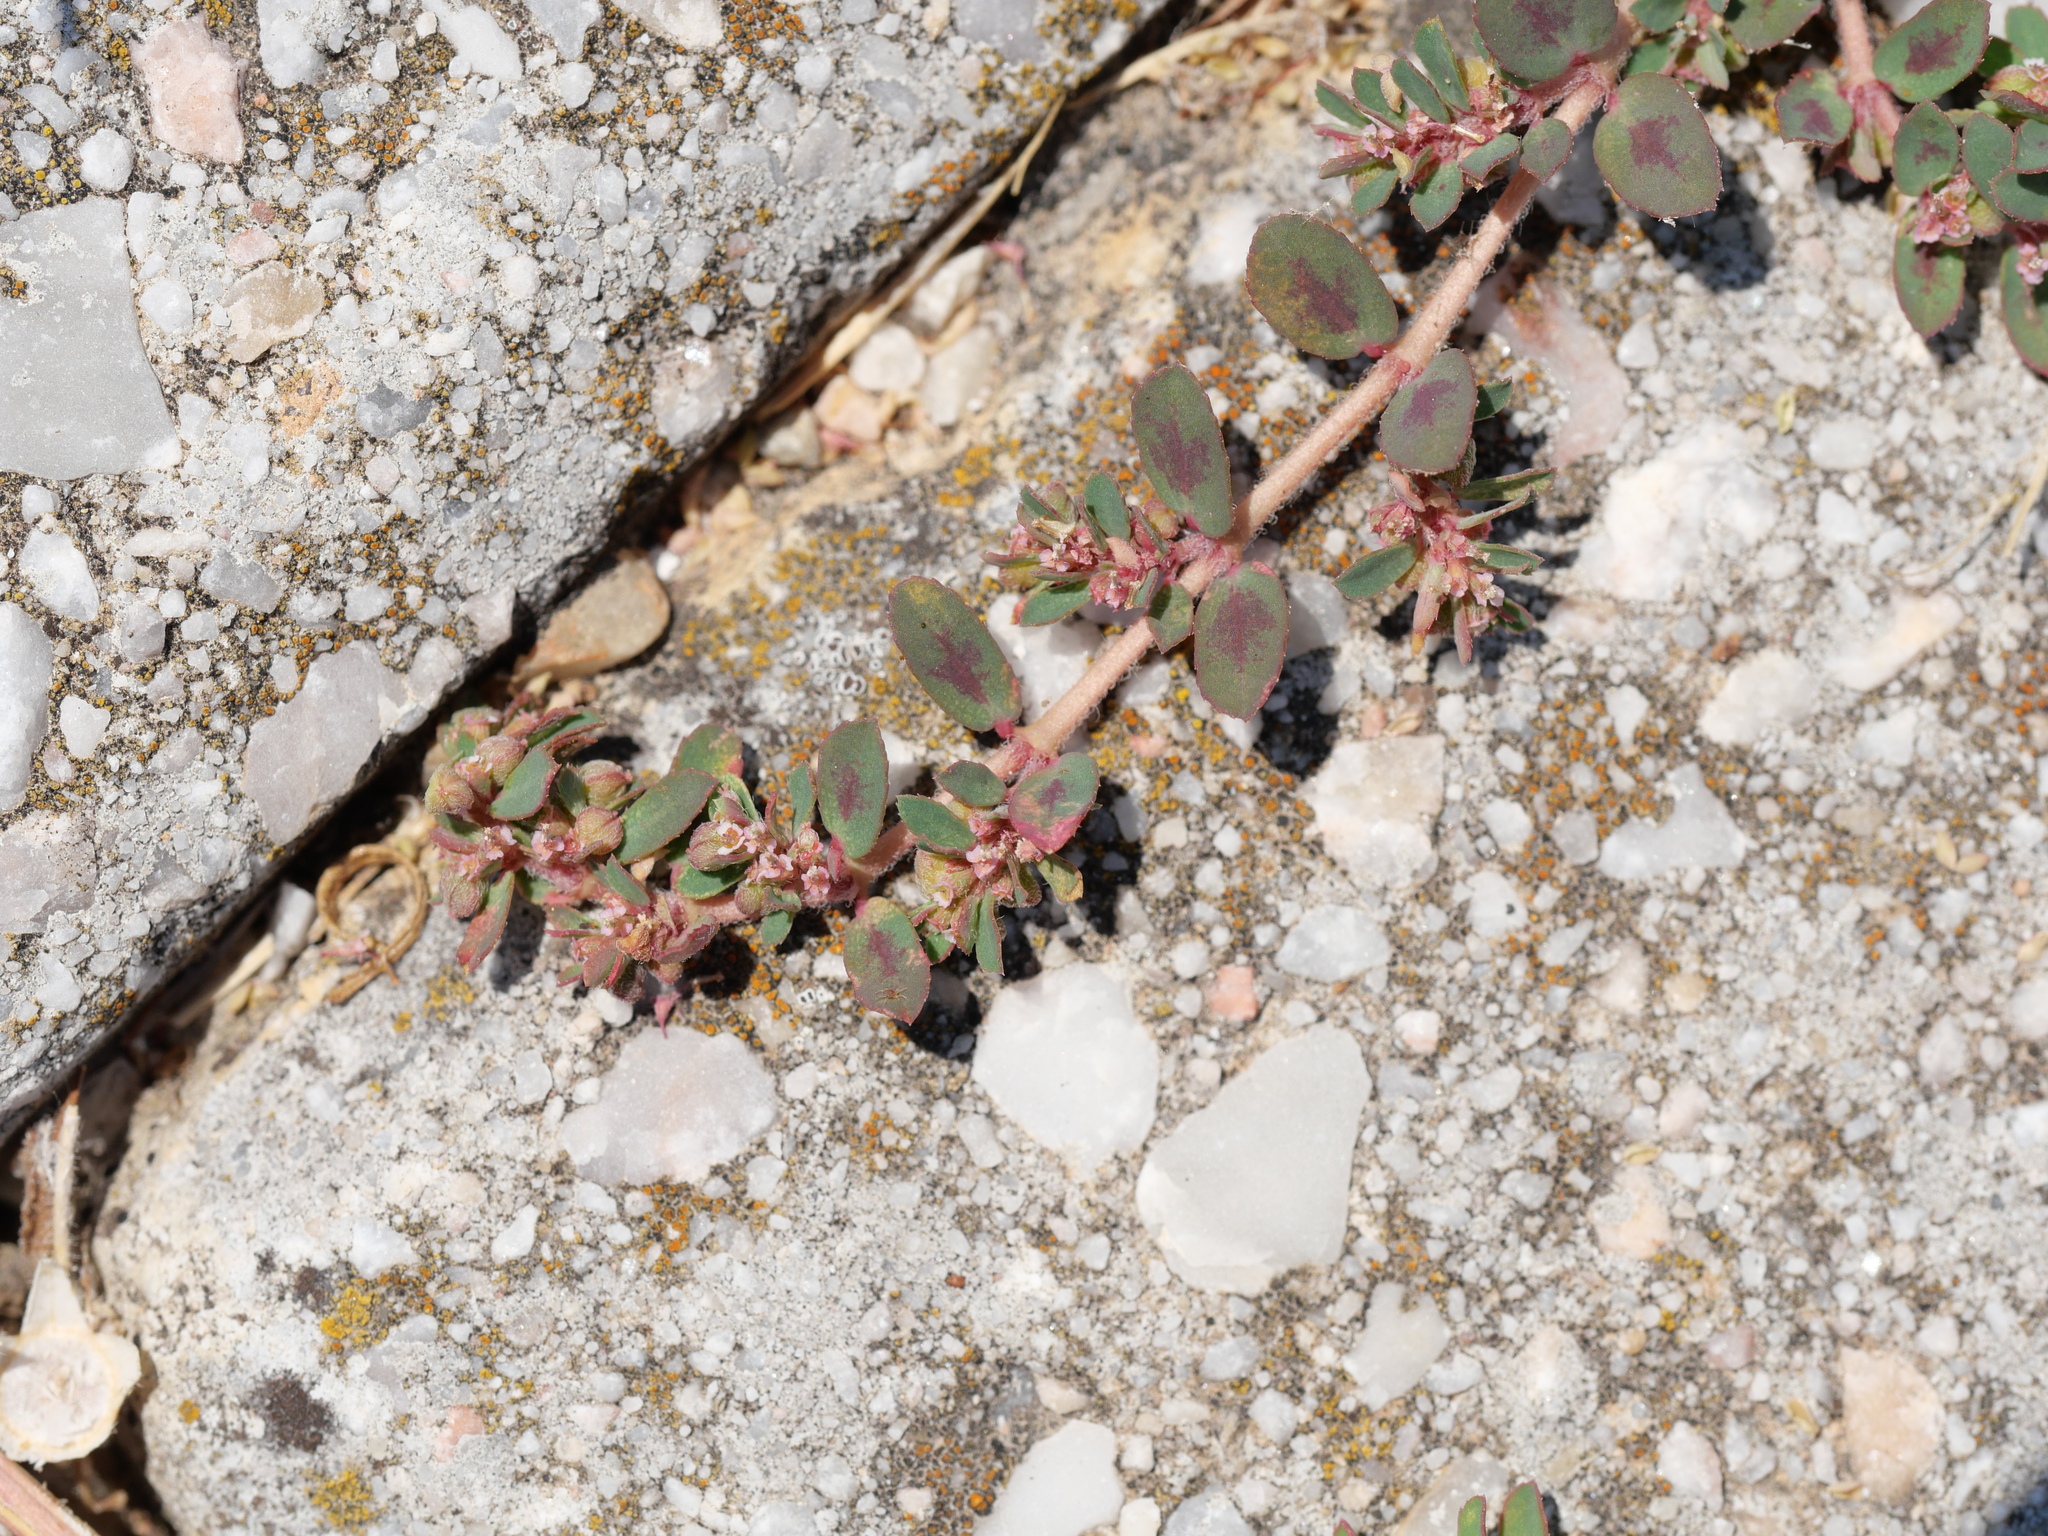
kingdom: Plantae
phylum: Tracheophyta
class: Magnoliopsida
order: Malpighiales
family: Euphorbiaceae
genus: Euphorbia
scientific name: Euphorbia maculata
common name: Spotted spurge
